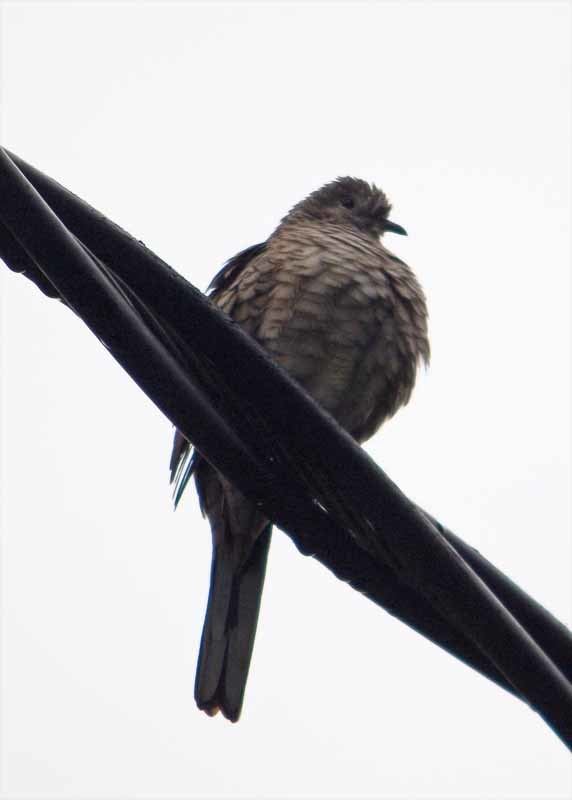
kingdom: Animalia
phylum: Chordata
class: Aves
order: Columbiformes
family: Columbidae
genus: Columbina
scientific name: Columbina inca
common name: Inca dove
